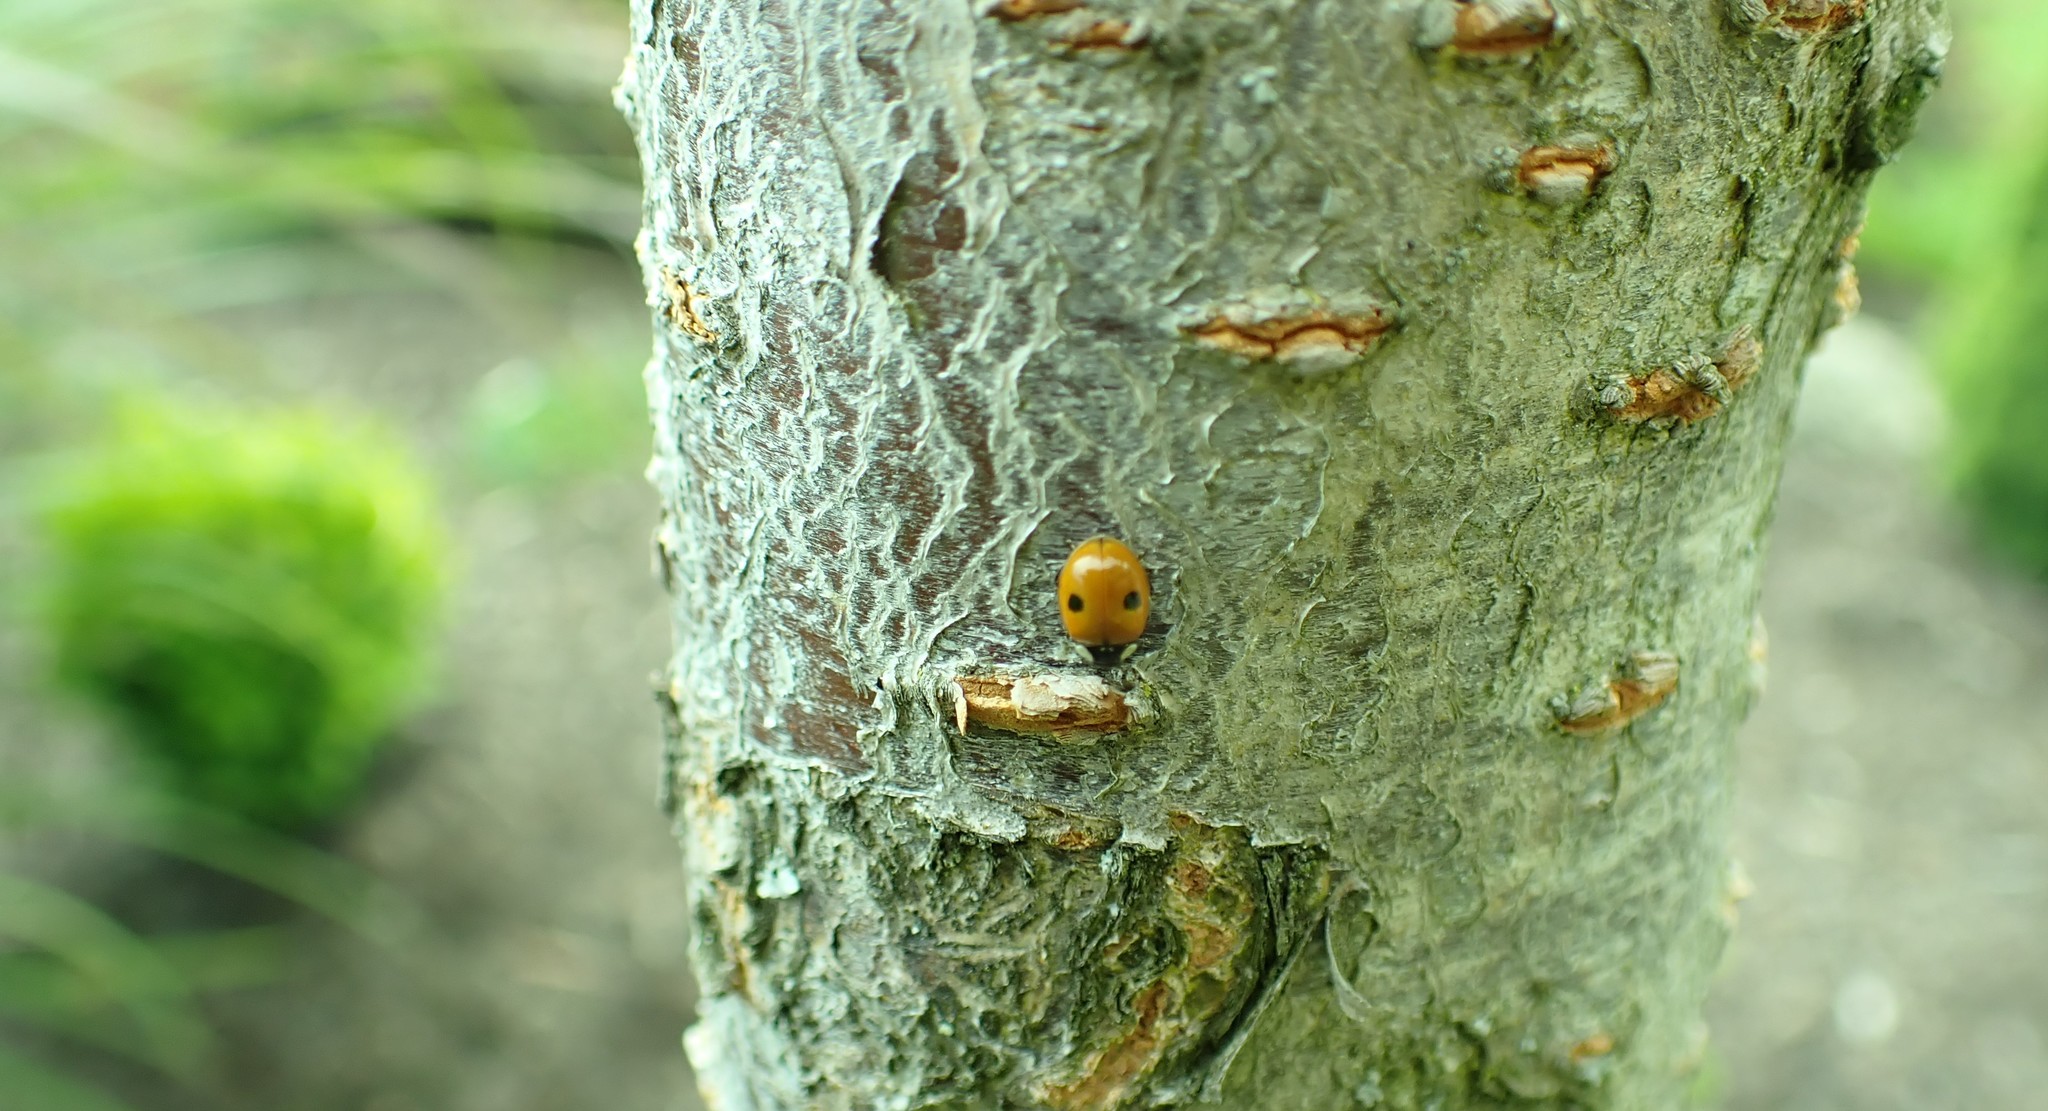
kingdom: Animalia
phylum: Arthropoda
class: Insecta
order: Coleoptera
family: Coccinellidae
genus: Adalia
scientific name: Adalia bipunctata
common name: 2-spot ladybird
